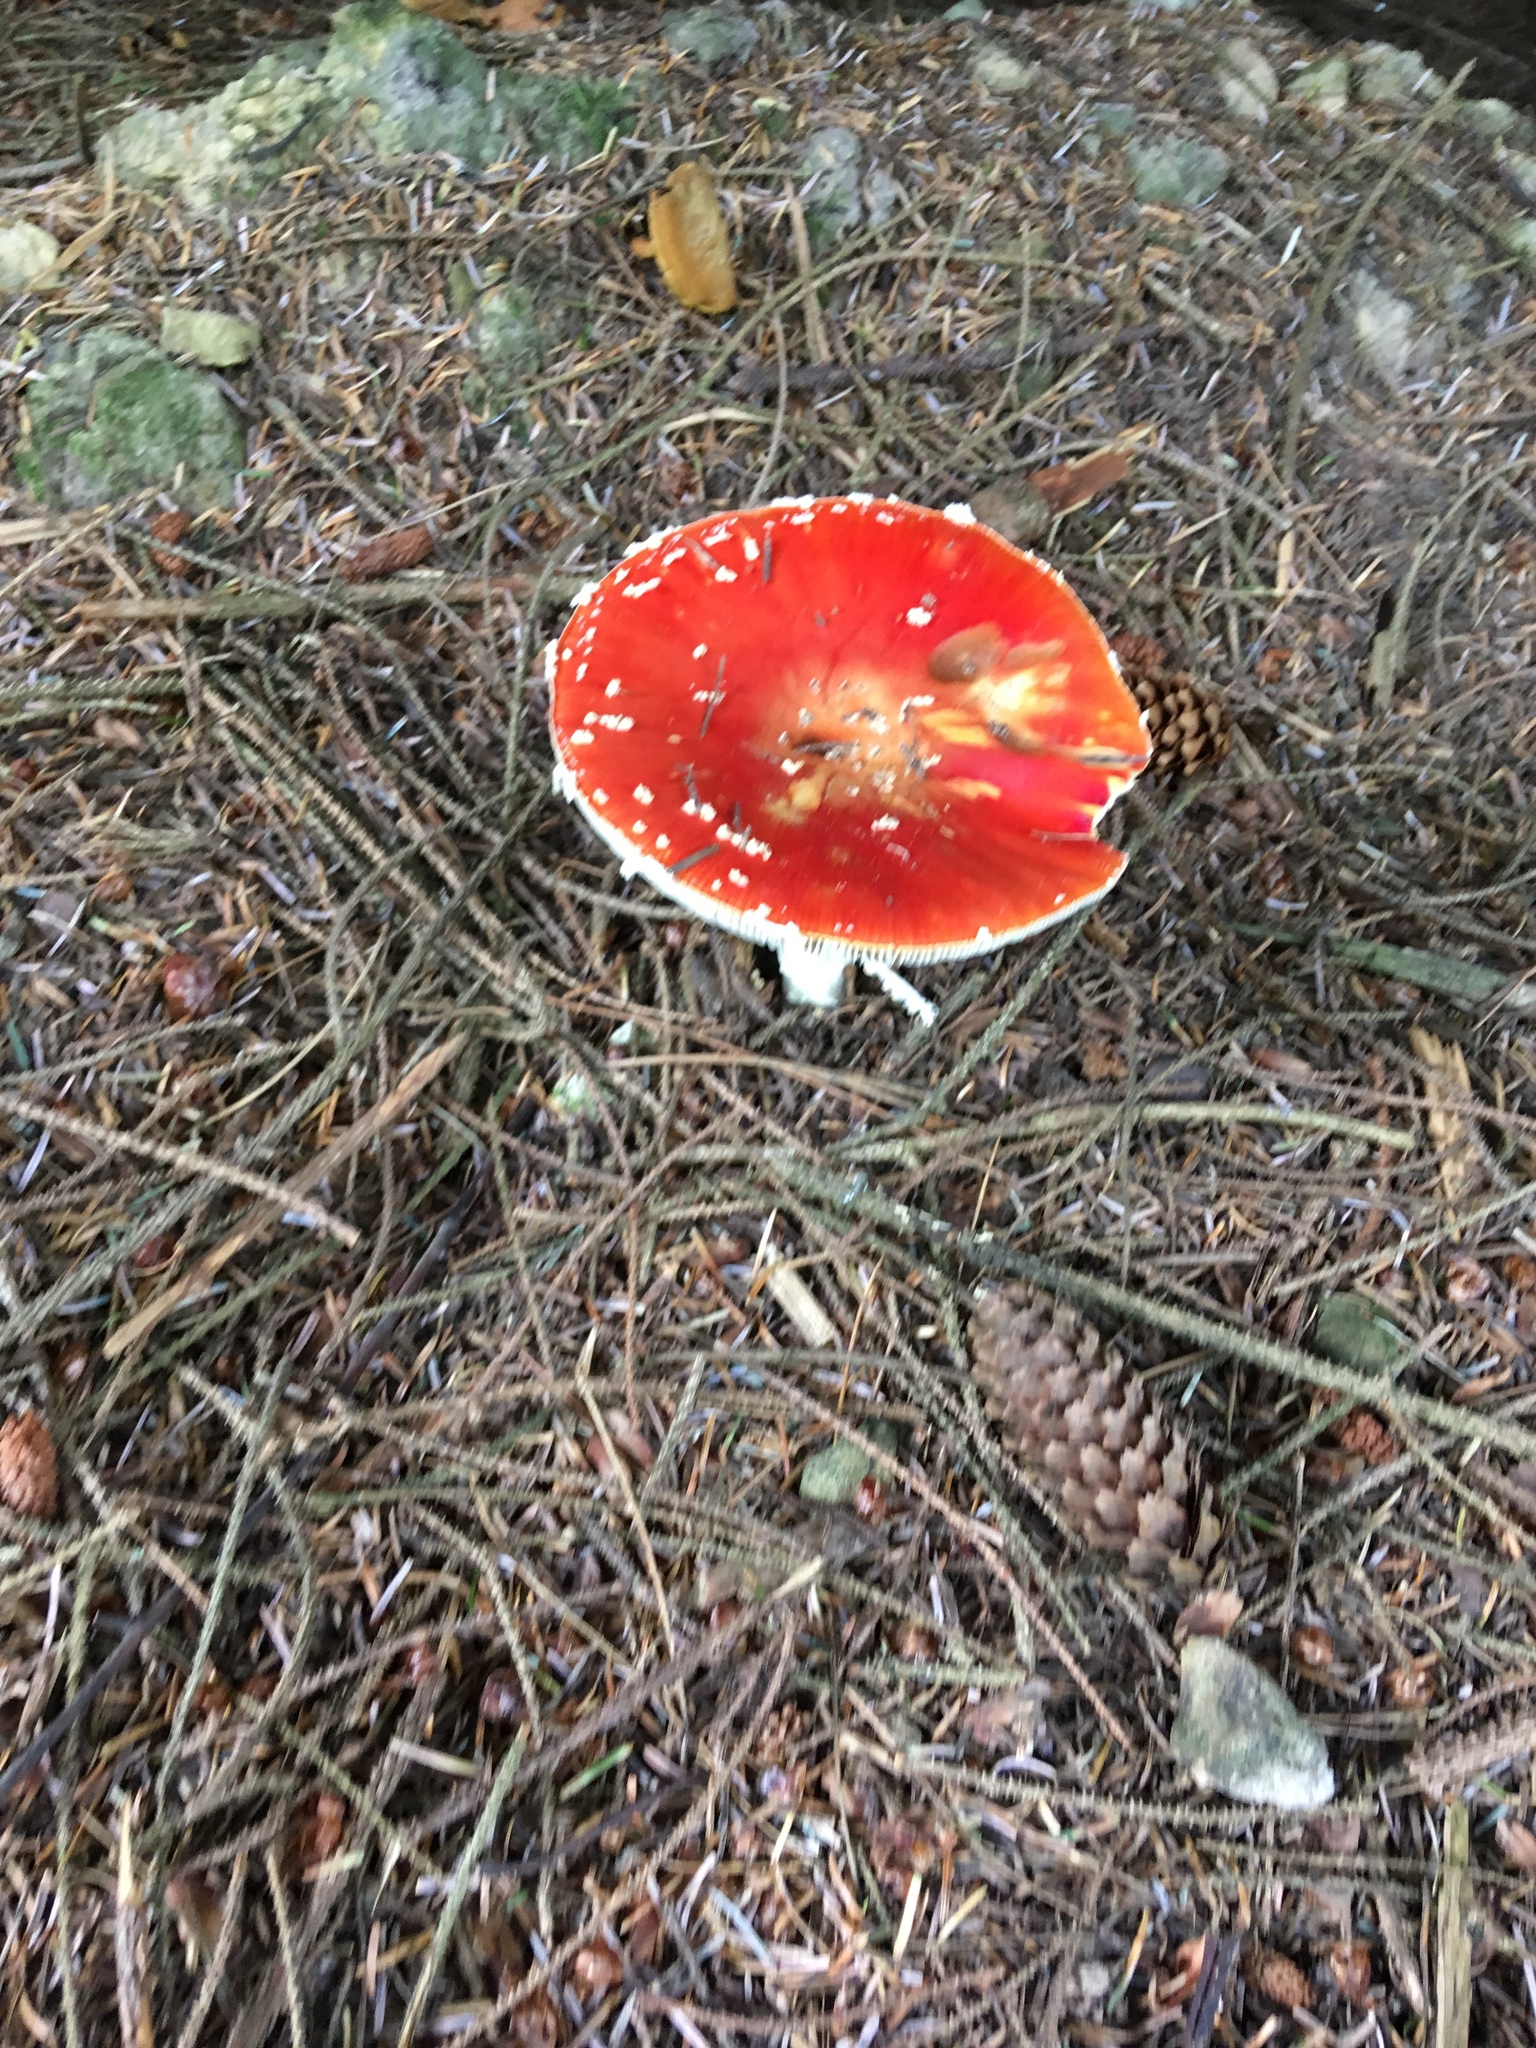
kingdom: Fungi
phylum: Basidiomycota
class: Agaricomycetes
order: Agaricales
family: Amanitaceae
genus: Amanita
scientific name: Amanita muscaria
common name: Fly agaric
